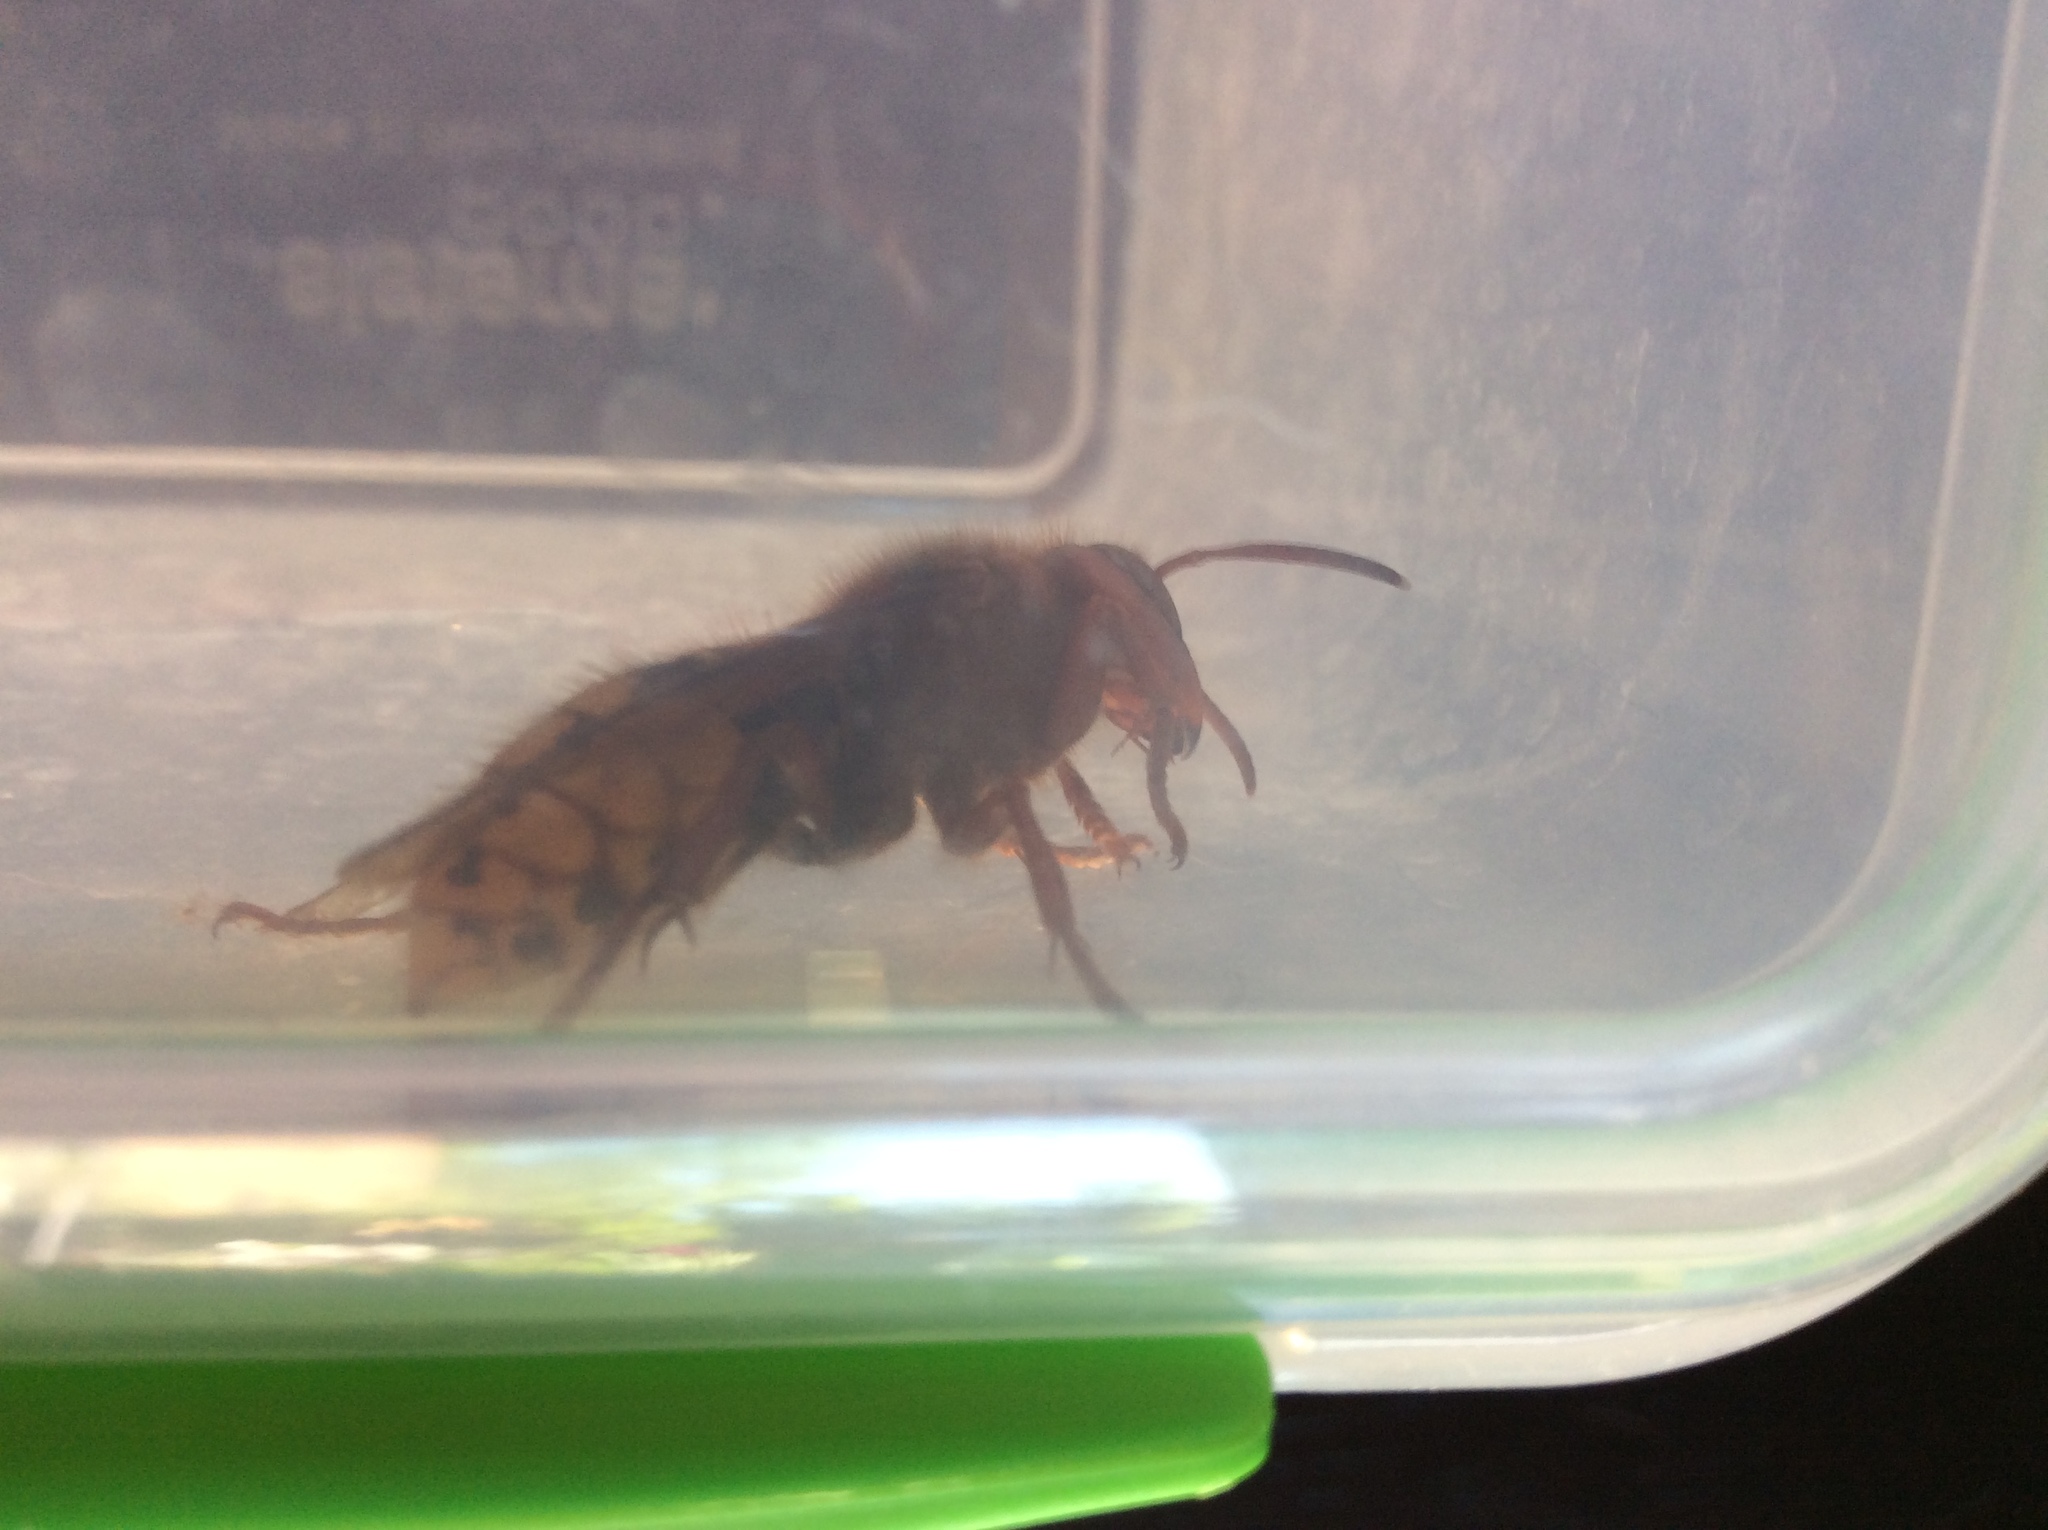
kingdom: Animalia
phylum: Arthropoda
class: Insecta
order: Hymenoptera
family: Vespidae
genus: Vespa
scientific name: Vespa crabro
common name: Hornet
